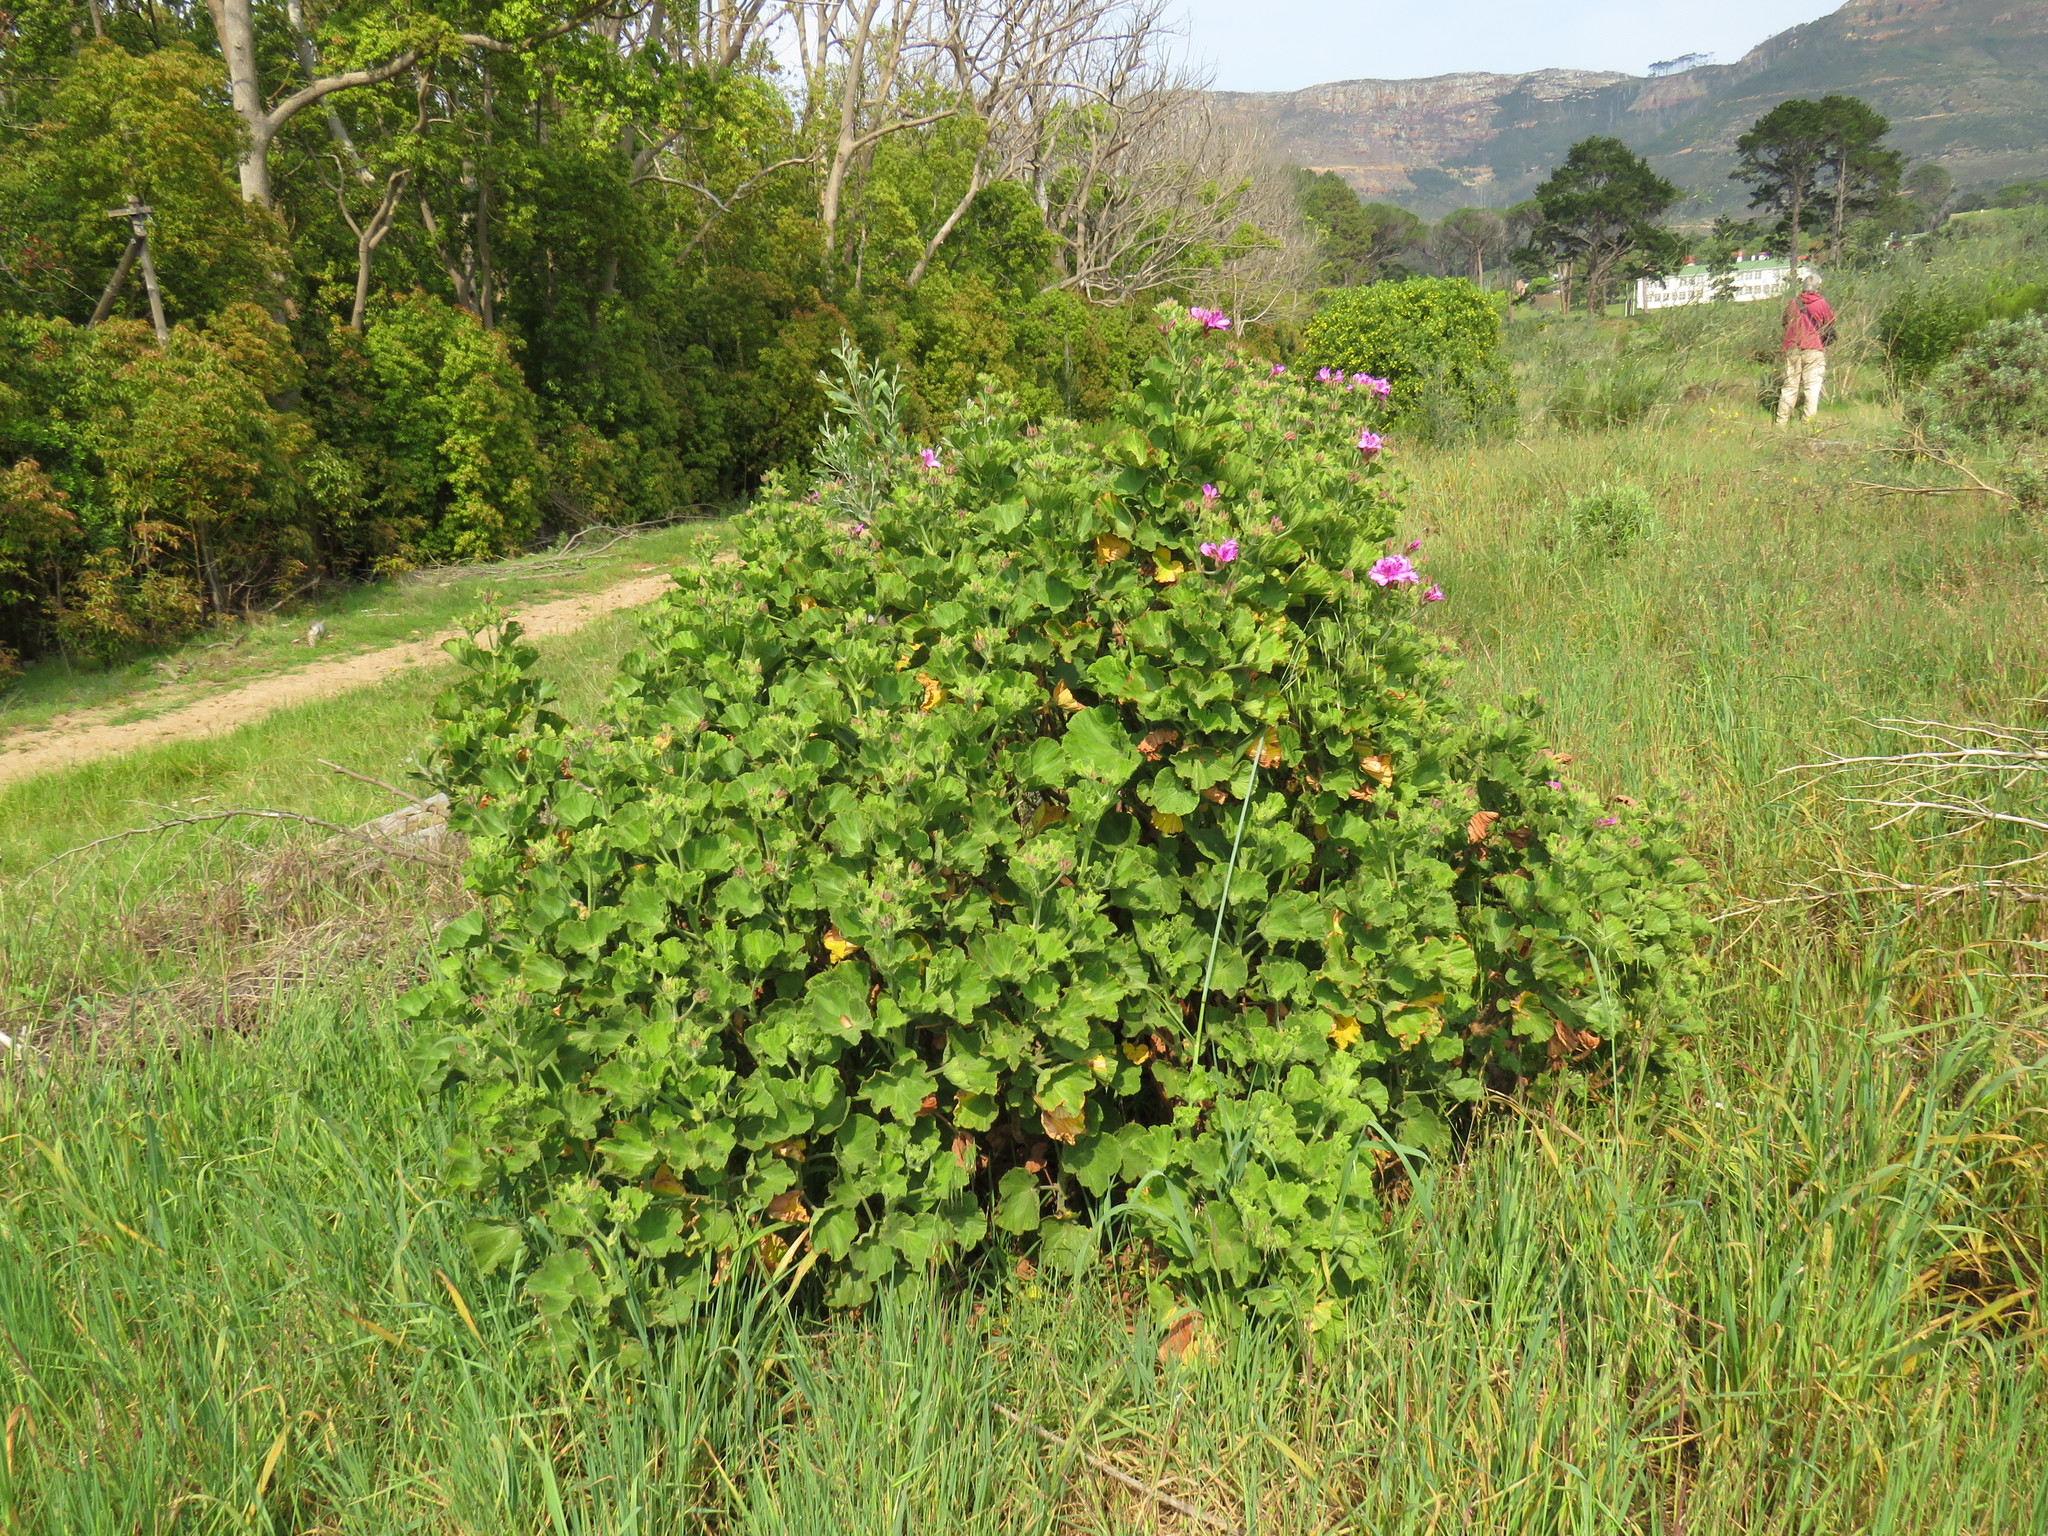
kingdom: Plantae
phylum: Tracheophyta
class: Magnoliopsida
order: Geraniales
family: Geraniaceae
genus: Pelargonium
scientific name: Pelargonium cucullatum
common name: Tree pelargonium
